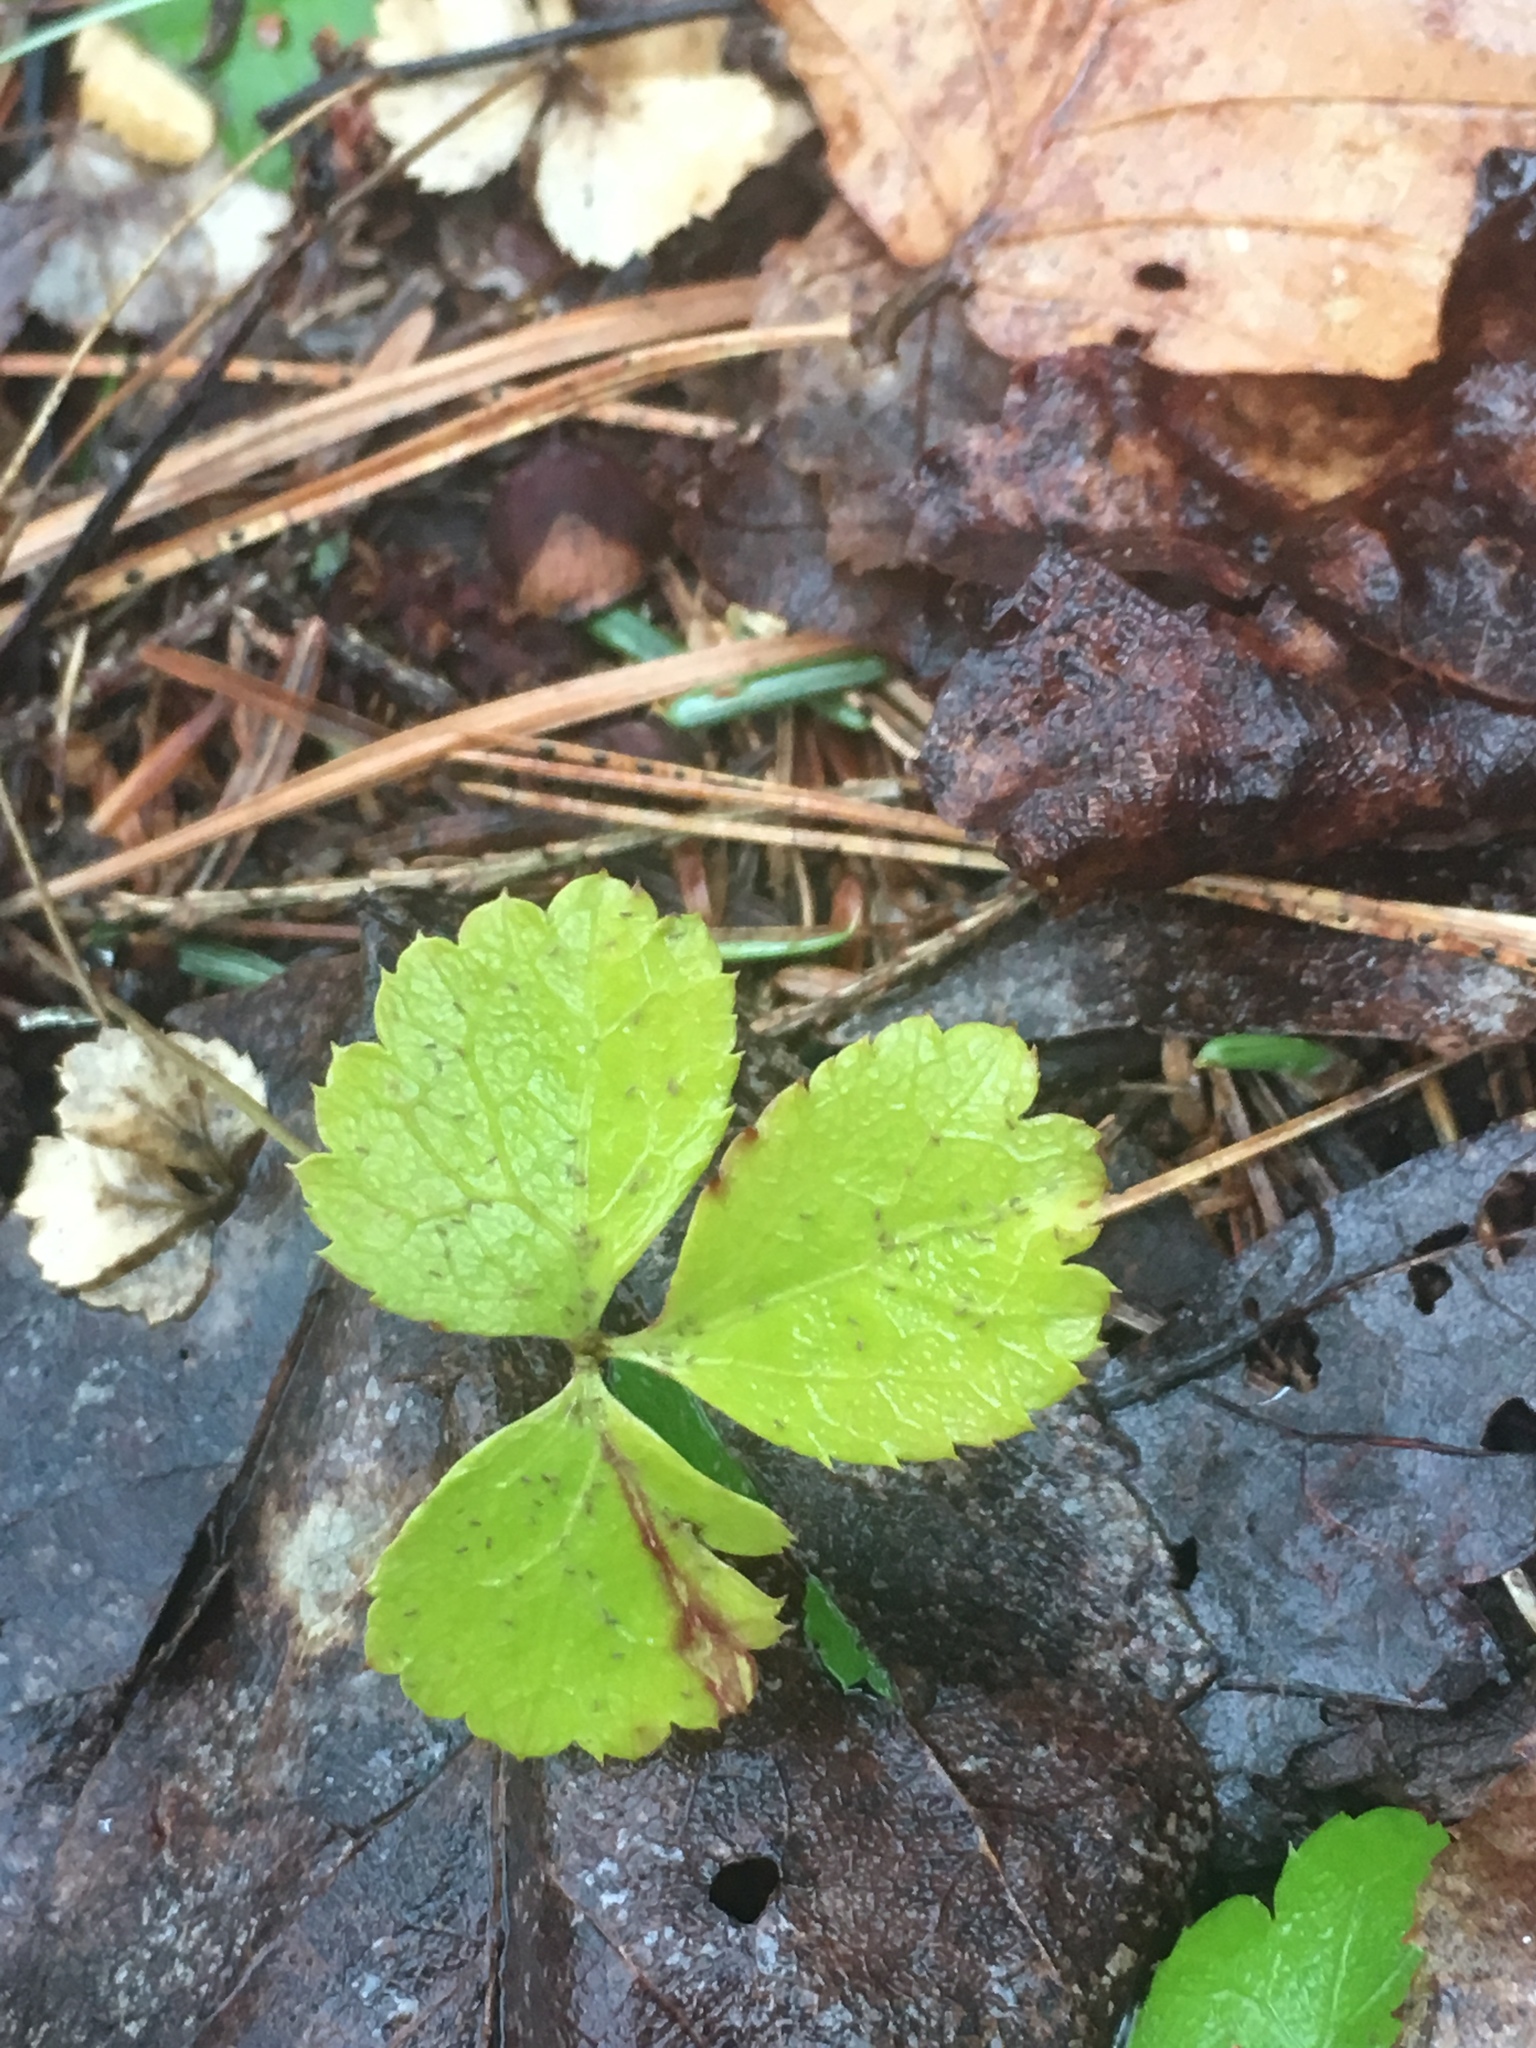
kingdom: Plantae
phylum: Tracheophyta
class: Magnoliopsida
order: Ranunculales
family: Ranunculaceae
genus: Coptis
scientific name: Coptis trifolia
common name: Canker-root
